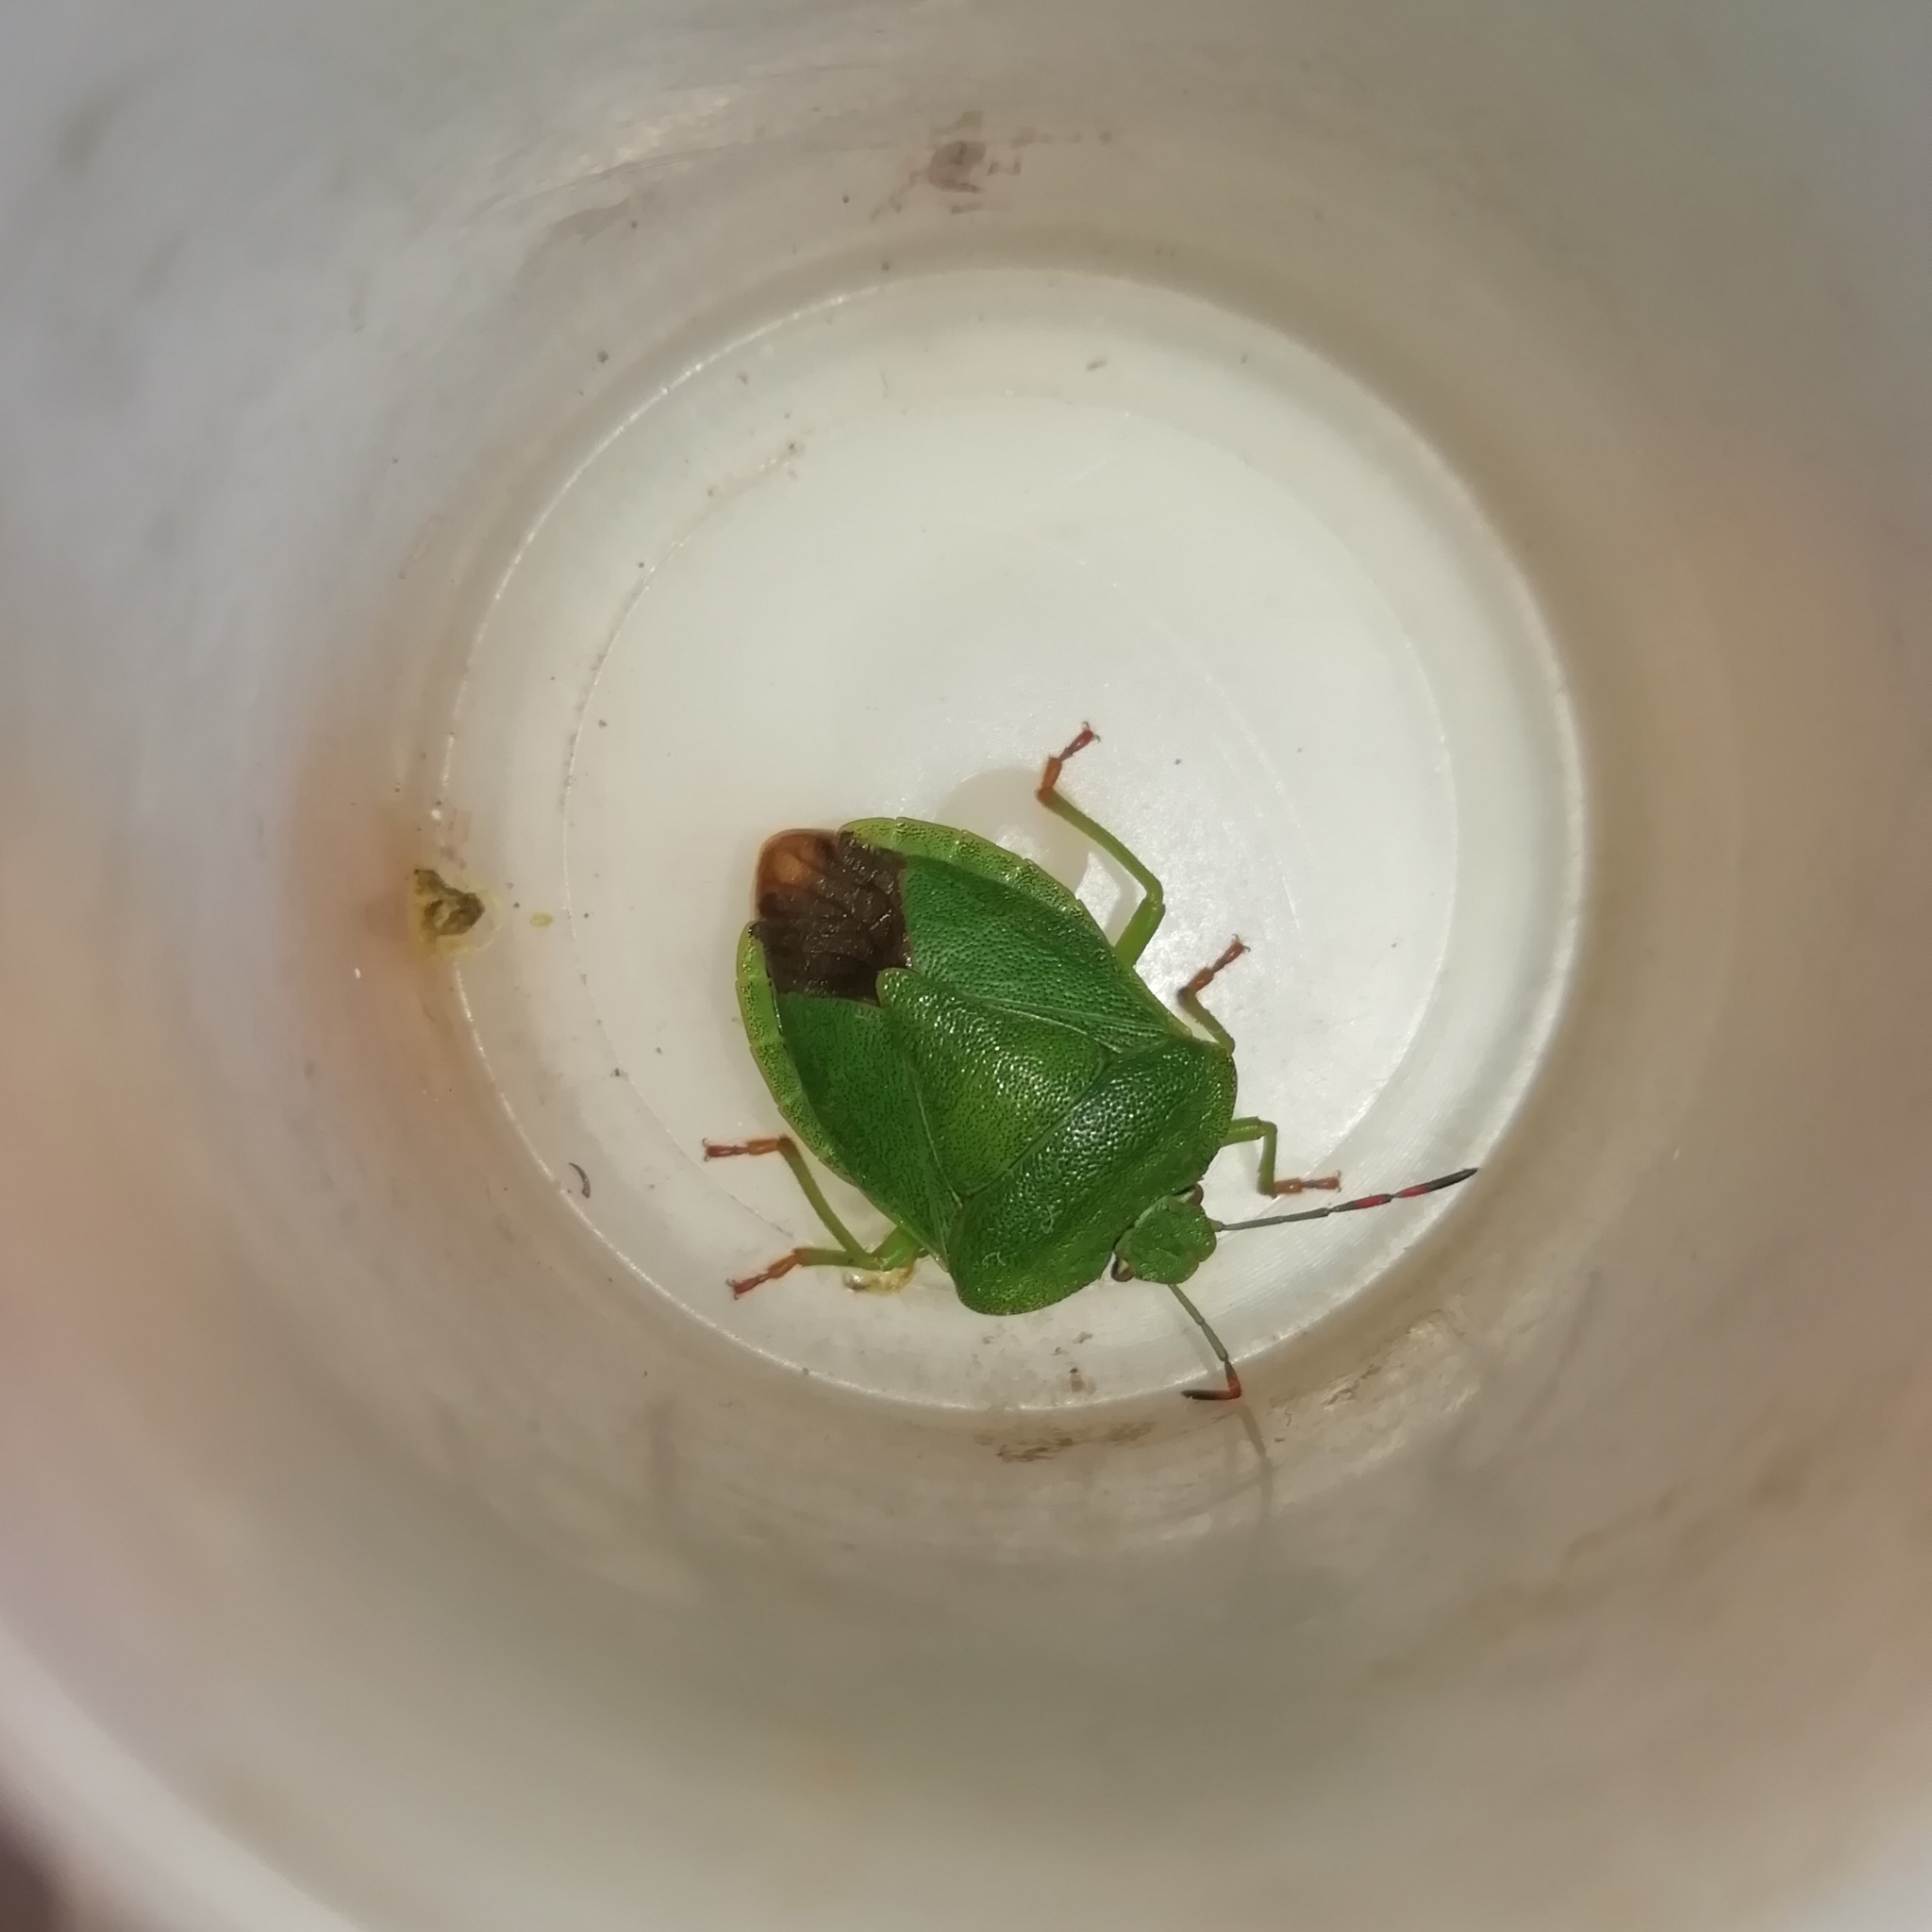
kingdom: Animalia
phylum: Arthropoda
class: Insecta
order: Hemiptera
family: Pentatomidae
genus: Palomena
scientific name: Palomena prasina
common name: Green shieldbug
